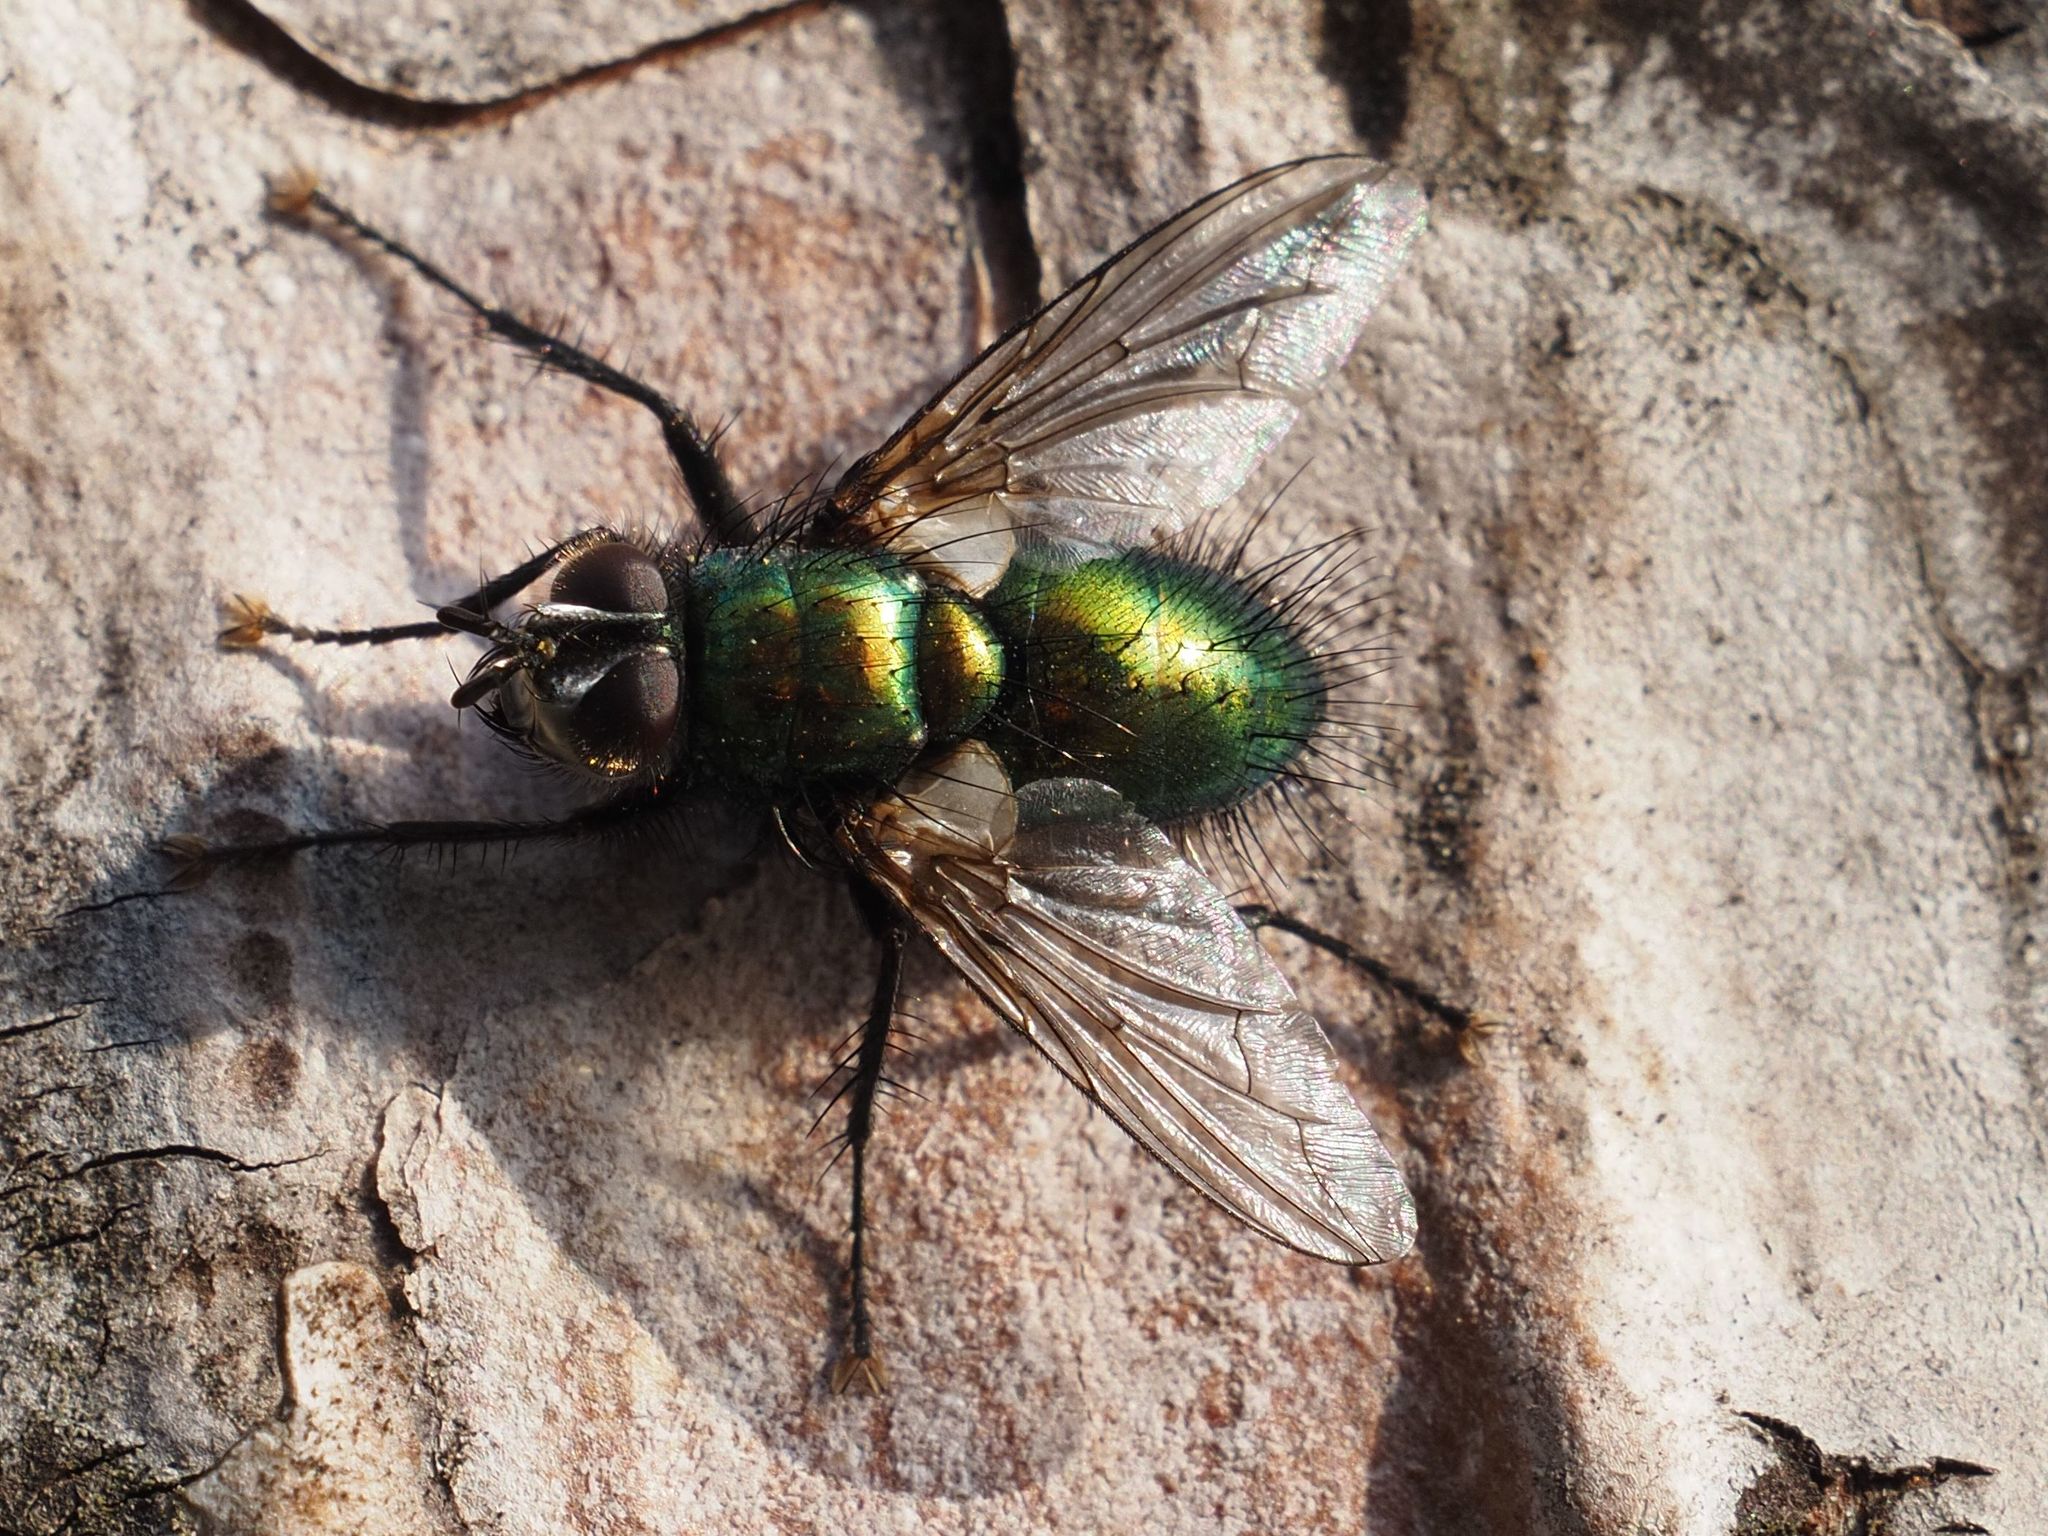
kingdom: Animalia
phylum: Arthropoda
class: Insecta
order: Diptera
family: Tachinidae
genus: Gymnocheta
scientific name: Gymnocheta viridis
